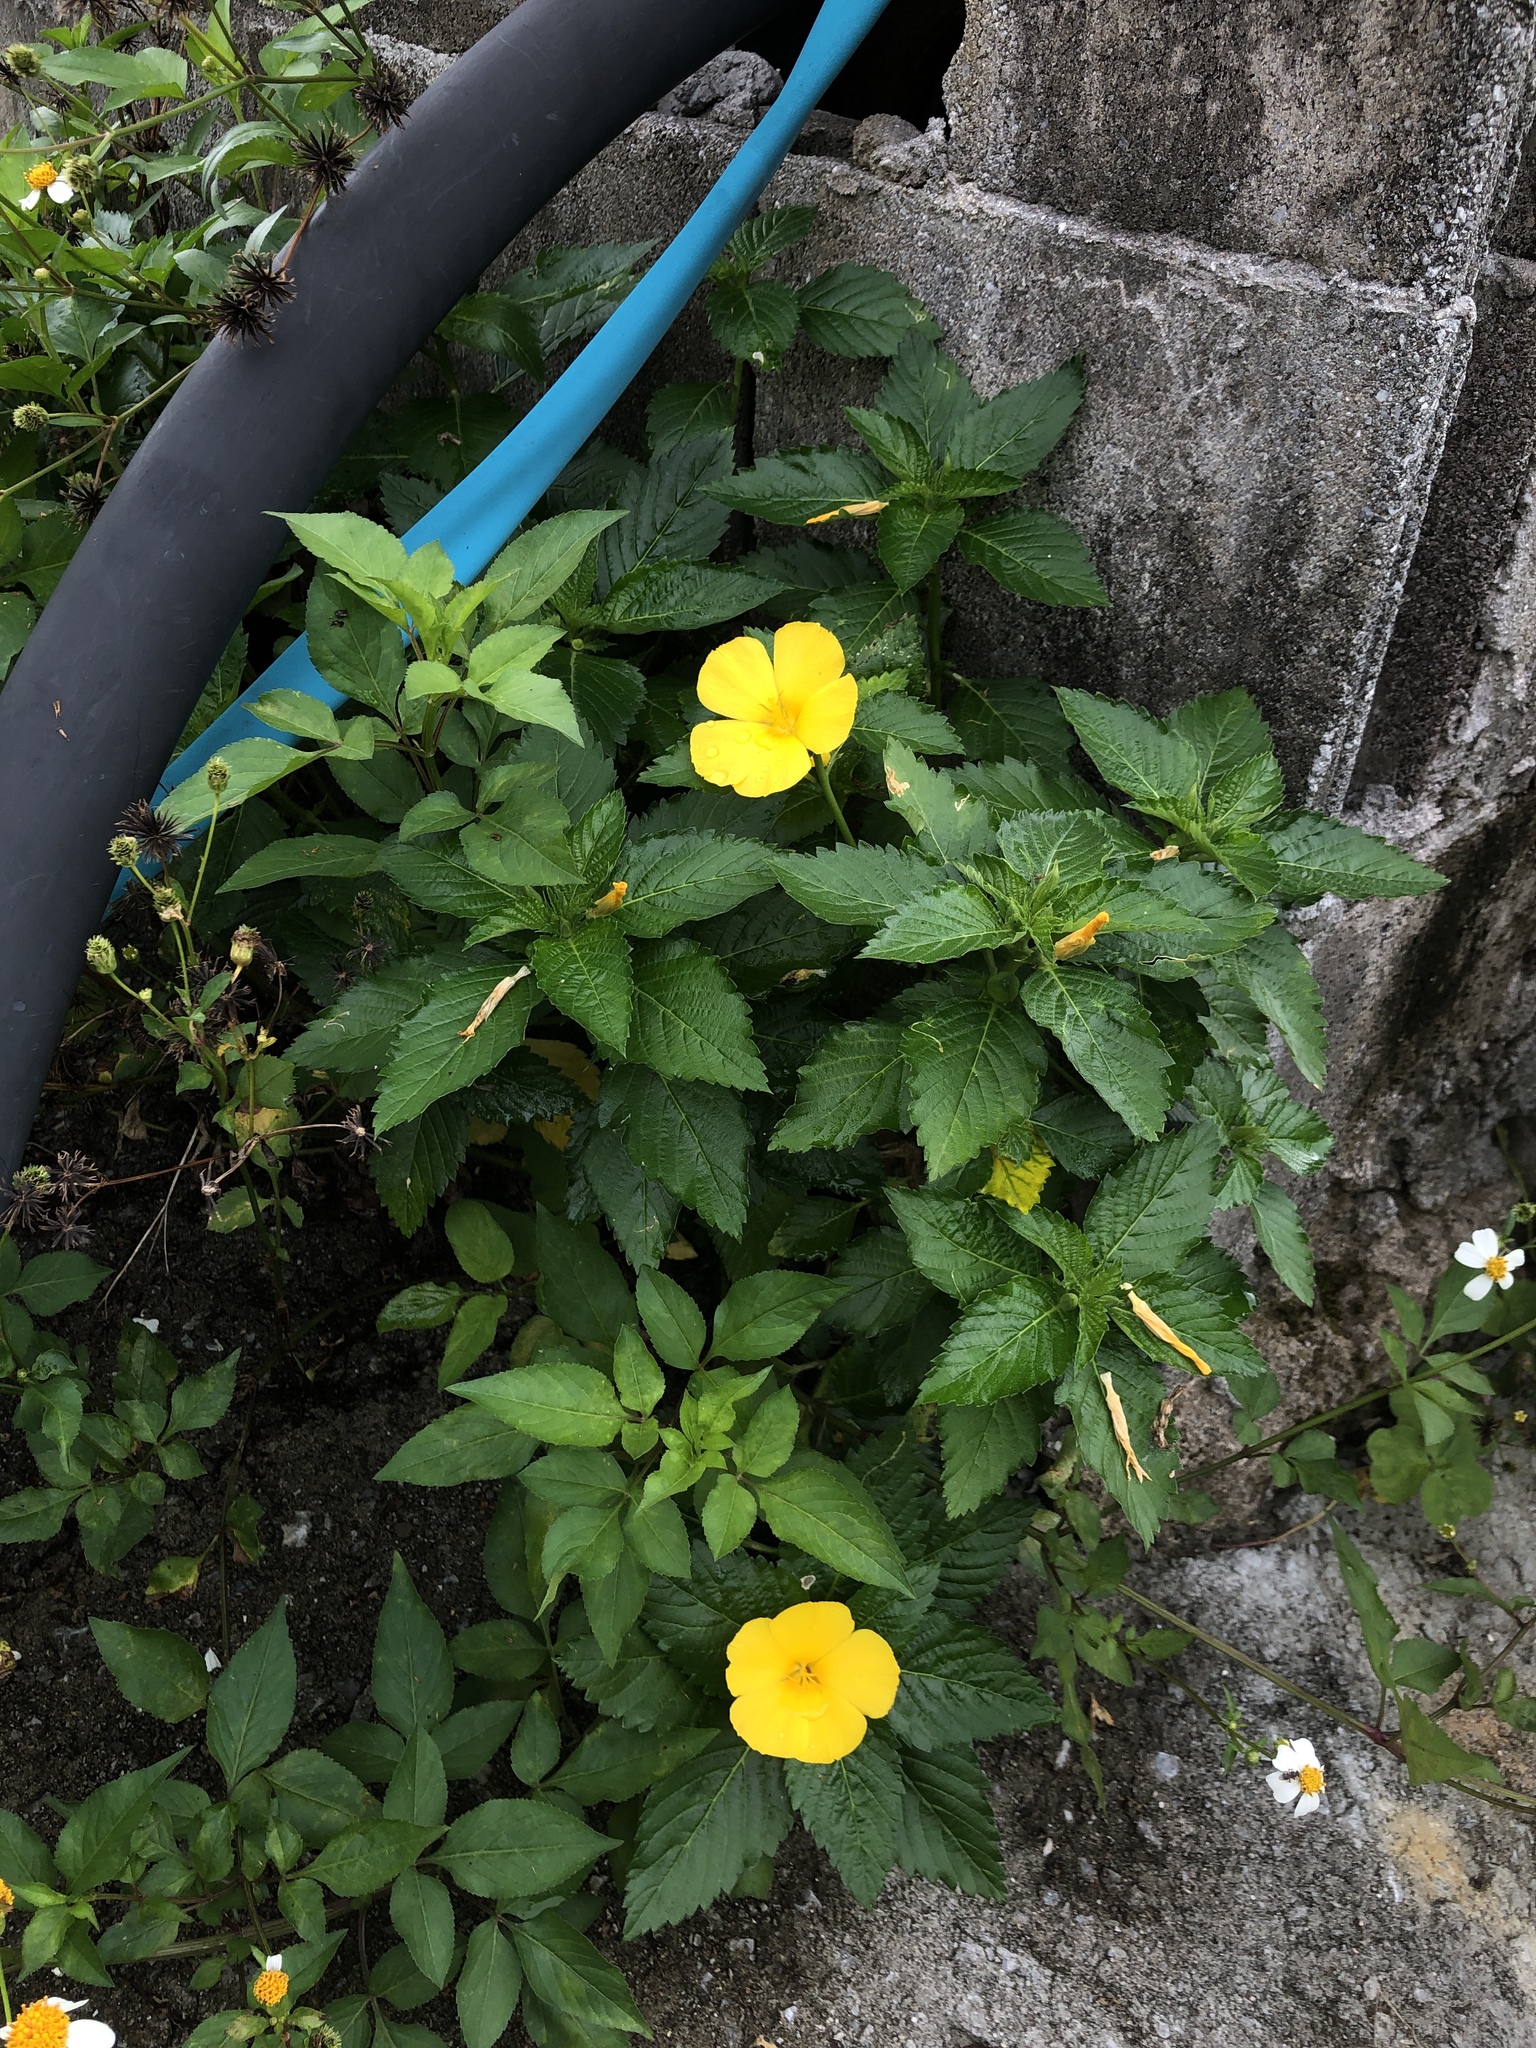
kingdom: Plantae
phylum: Tracheophyta
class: Magnoliopsida
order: Malpighiales
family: Turneraceae
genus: Turnera
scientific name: Turnera ulmifolia
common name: Ramgoat dashalong
